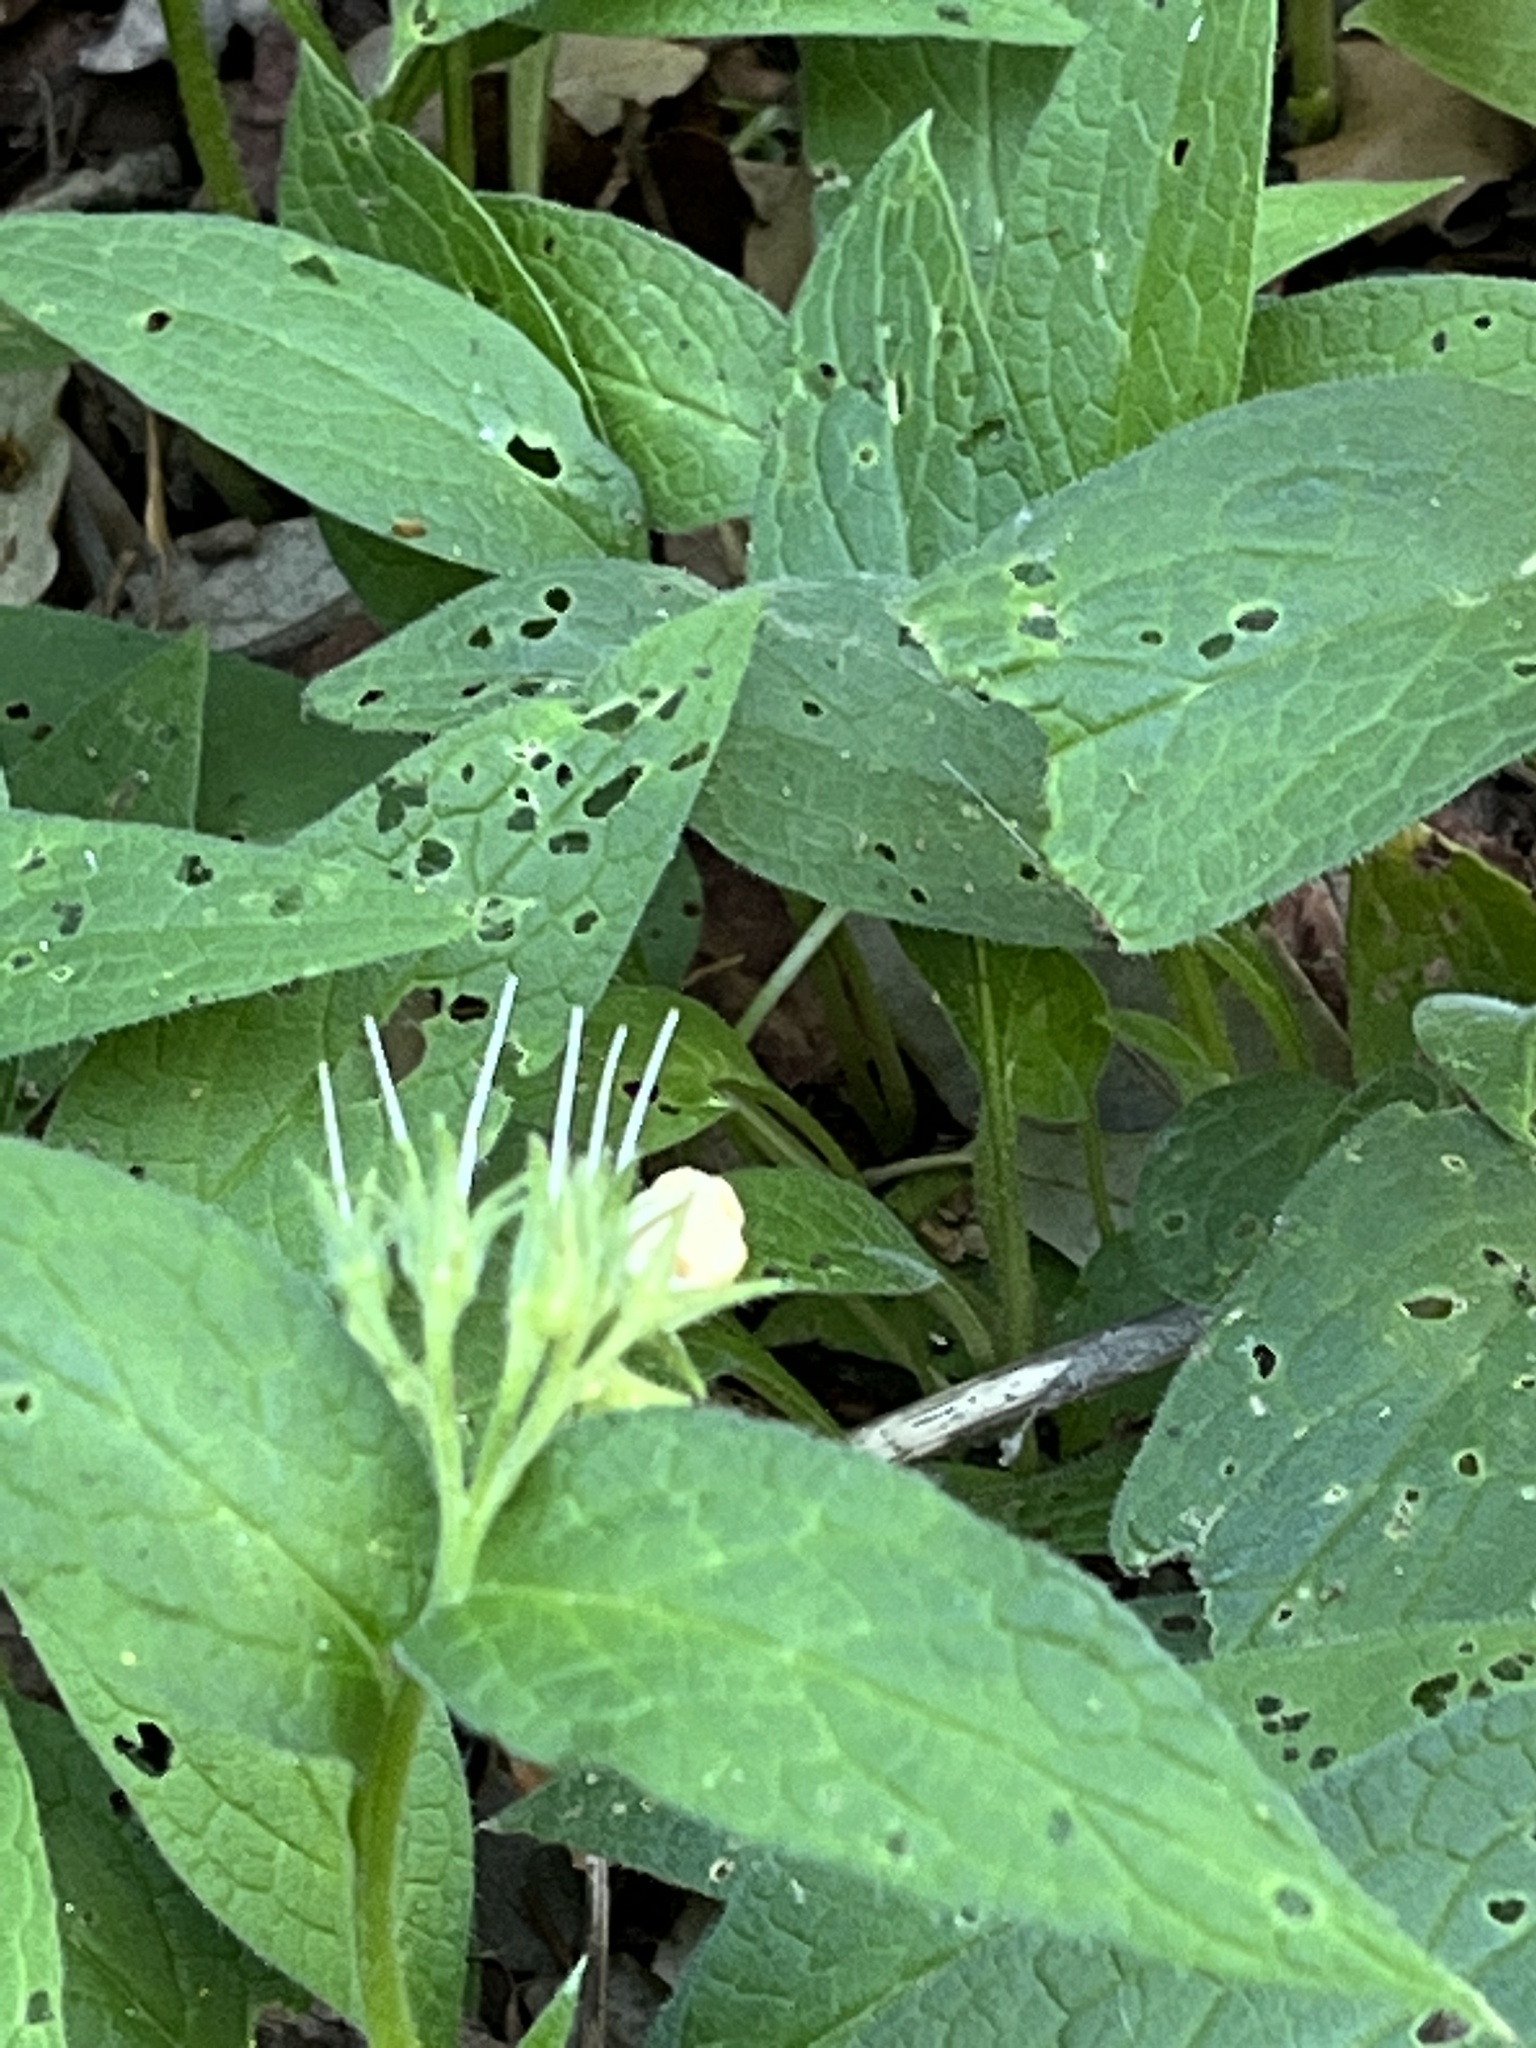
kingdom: Plantae
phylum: Tracheophyta
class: Magnoliopsida
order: Boraginales
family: Boraginaceae
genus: Symphytum
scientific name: Symphytum tuberosum
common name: Tuberous comfrey
